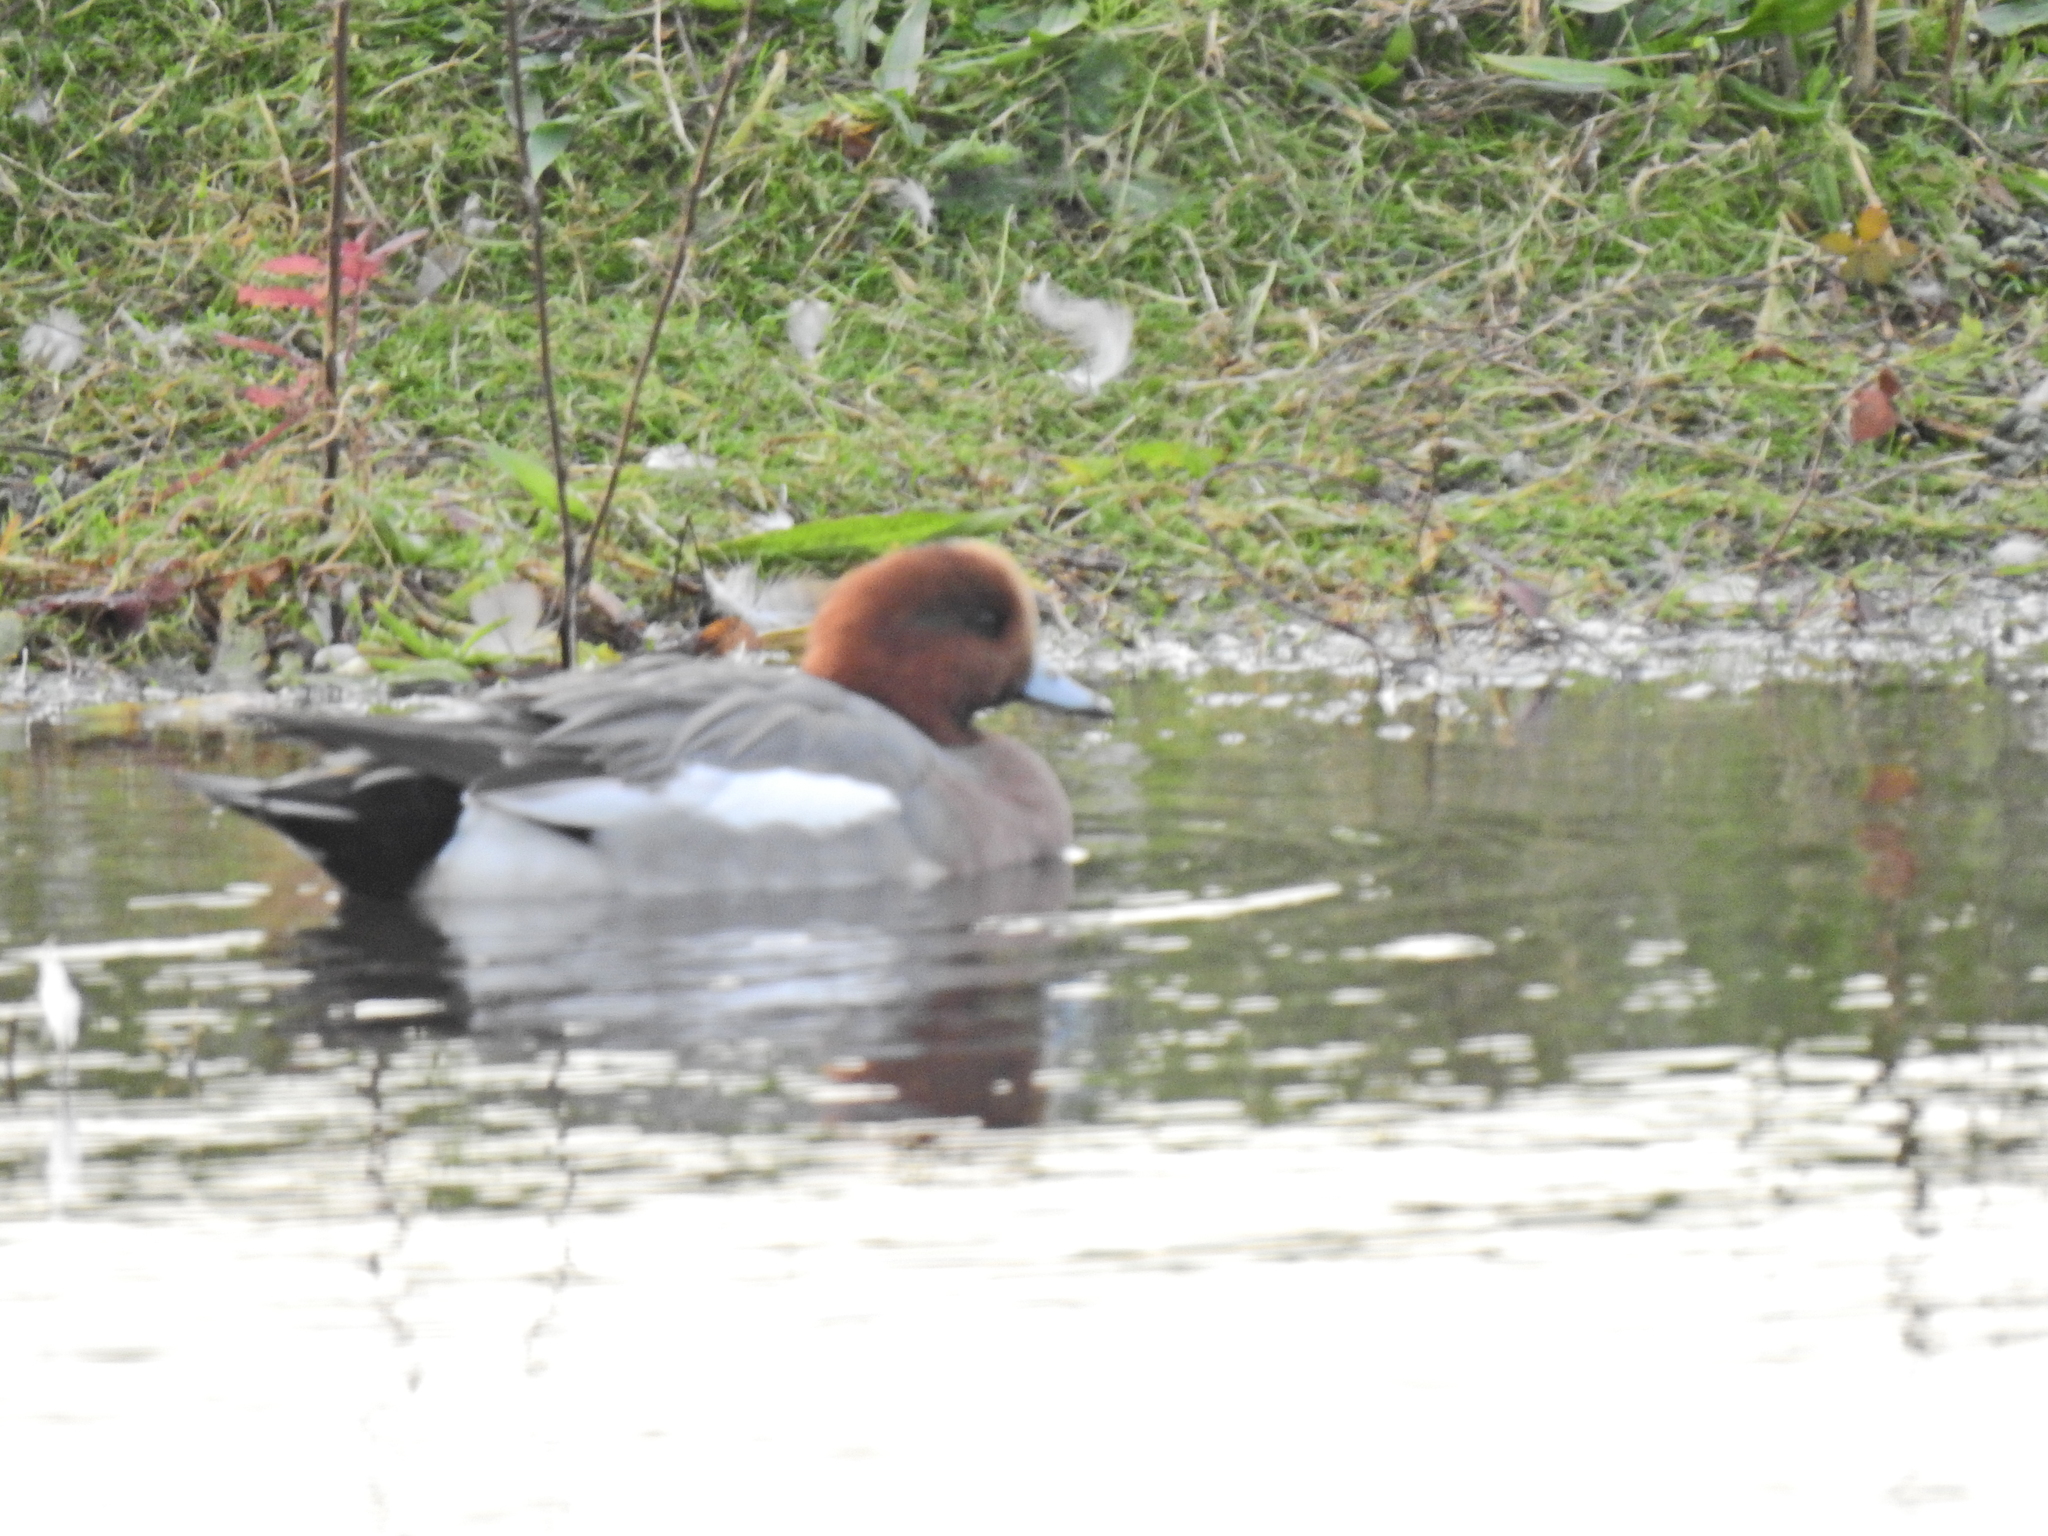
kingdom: Animalia
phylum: Chordata
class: Aves
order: Anseriformes
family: Anatidae
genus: Mareca
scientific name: Mareca penelope
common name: Eurasian wigeon
